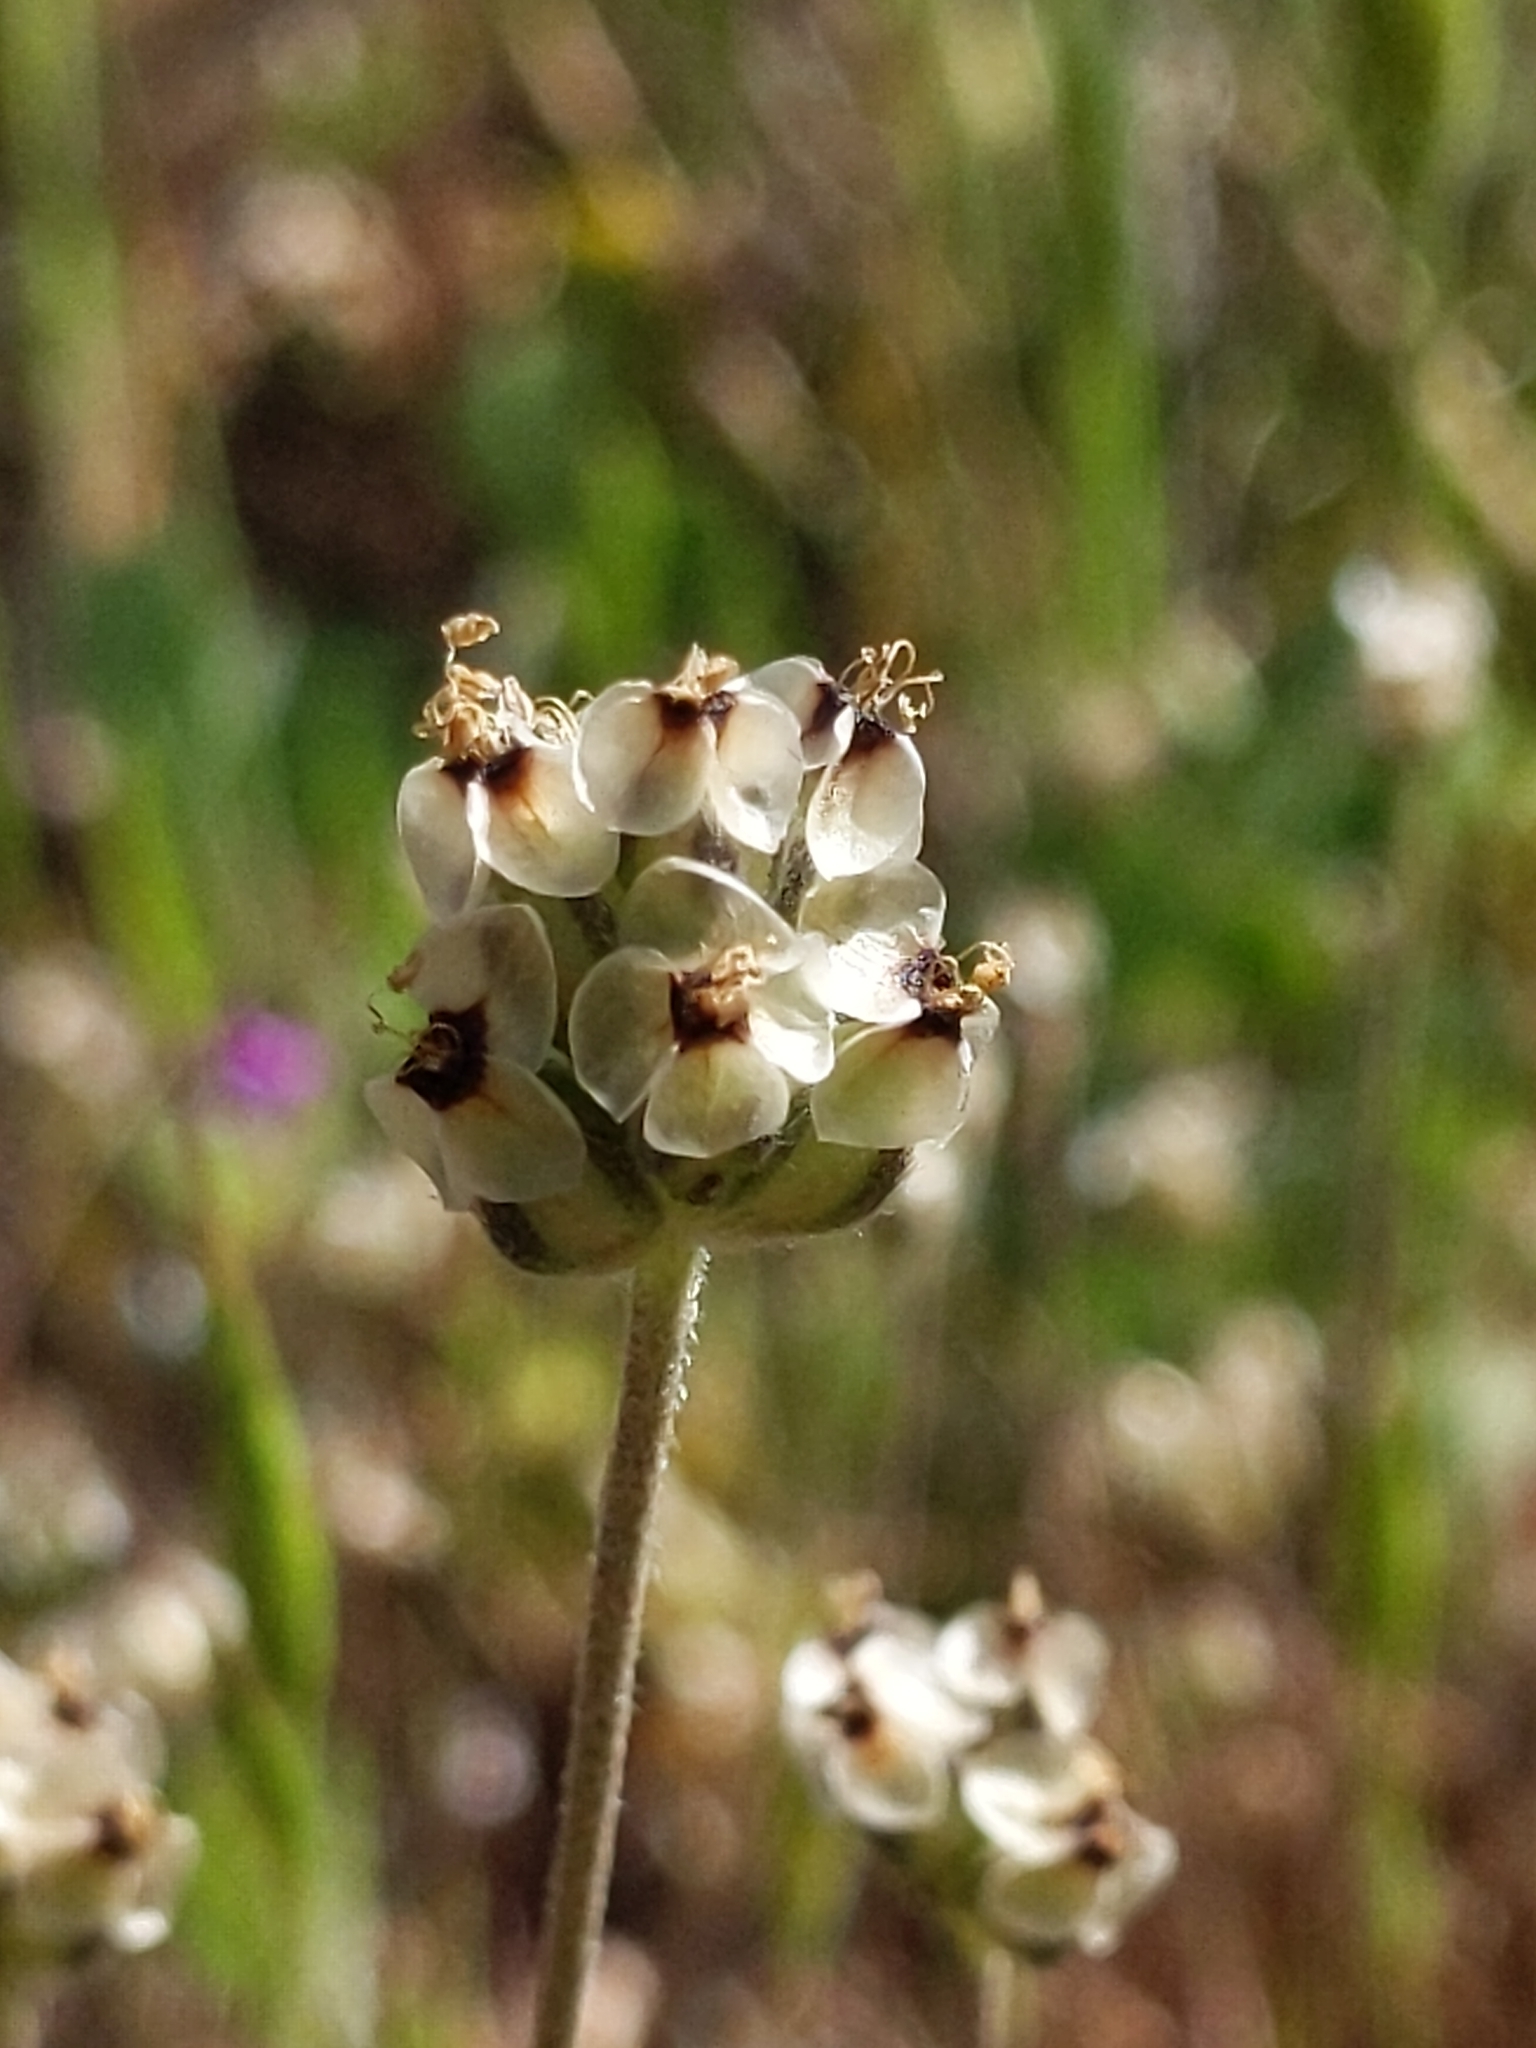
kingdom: Plantae
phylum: Tracheophyta
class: Magnoliopsida
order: Lamiales
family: Plantaginaceae
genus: Plantago
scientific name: Plantago erecta
